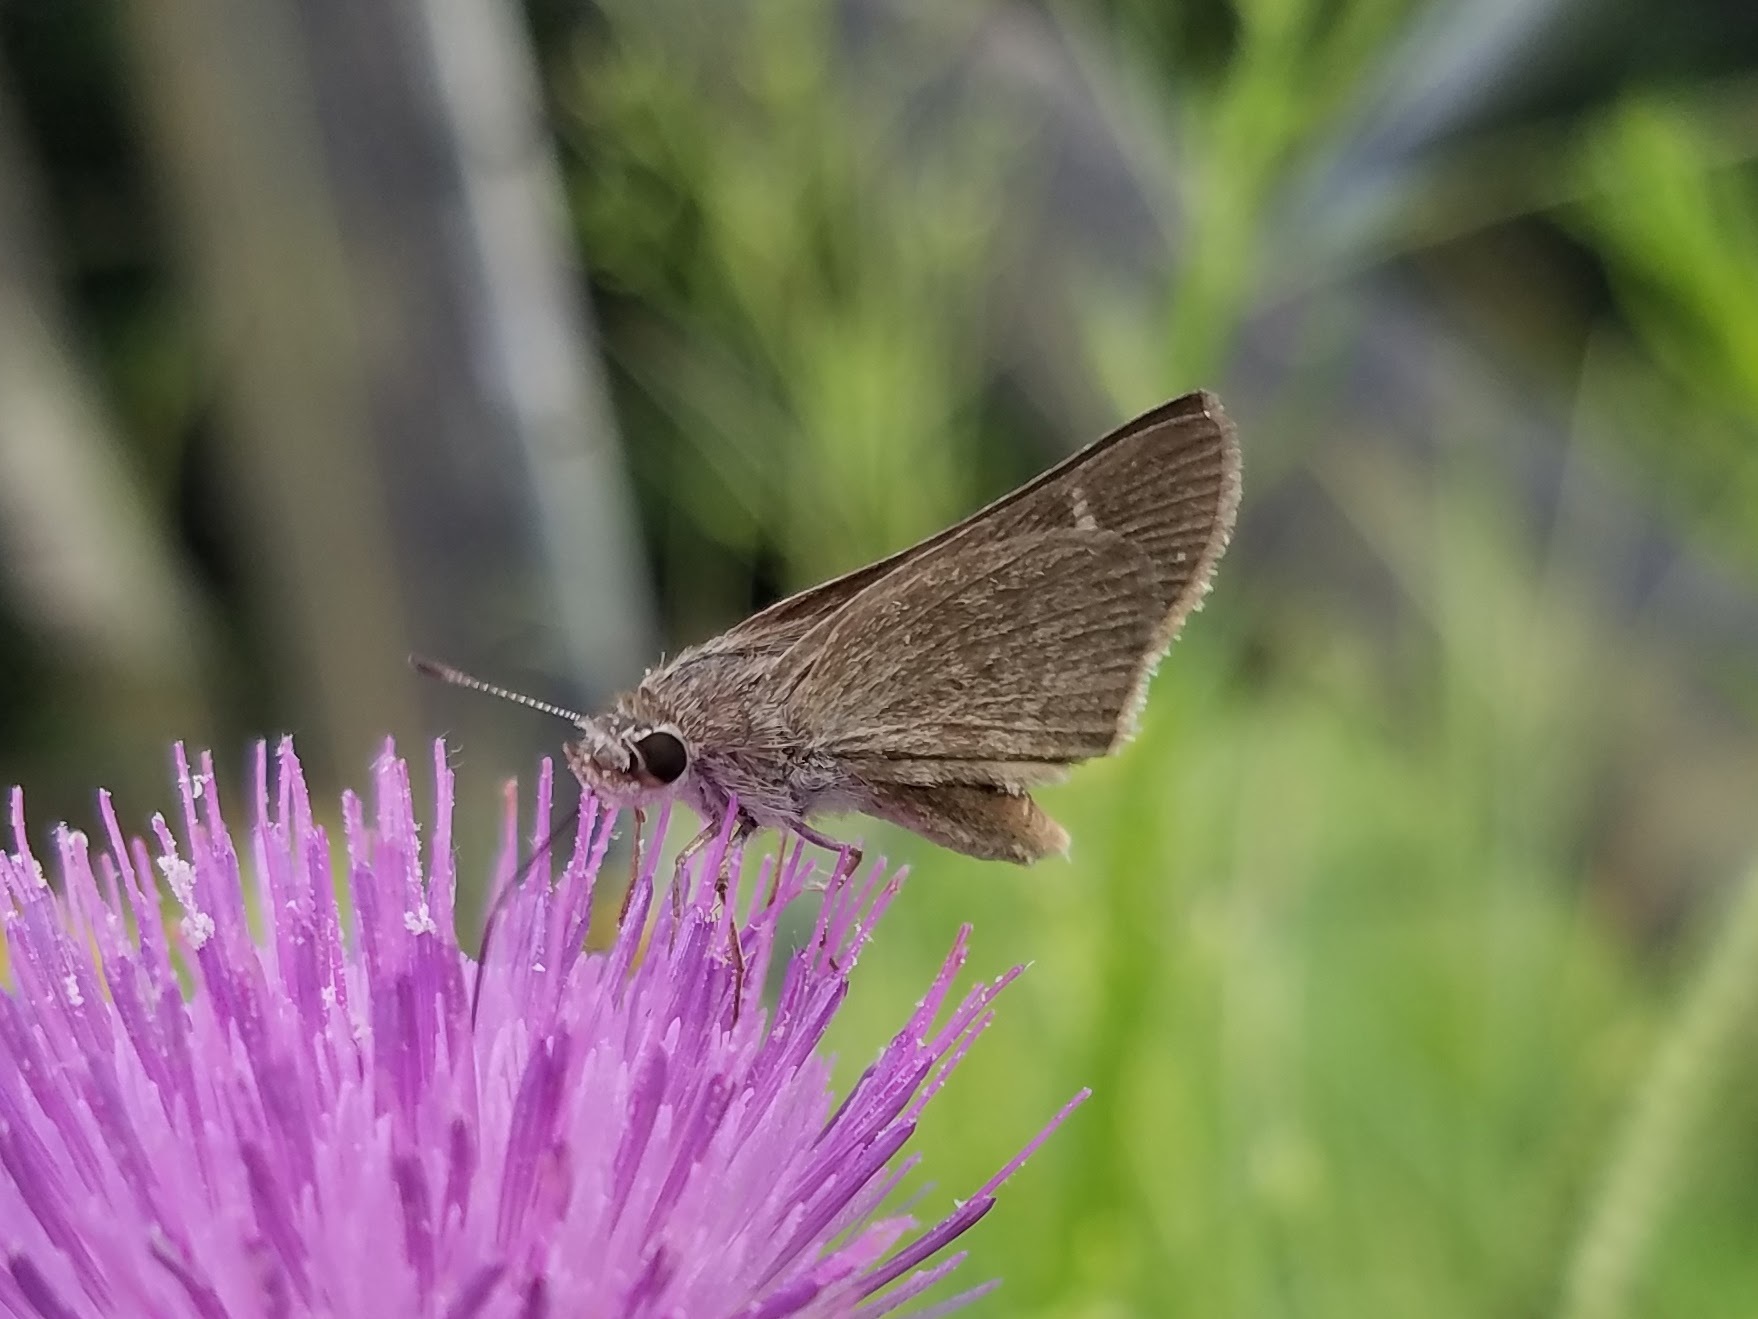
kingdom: Animalia
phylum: Arthropoda
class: Insecta
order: Lepidoptera
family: Hesperiidae
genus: Lerodea
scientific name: Lerodea eufala
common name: Eufala skipper
